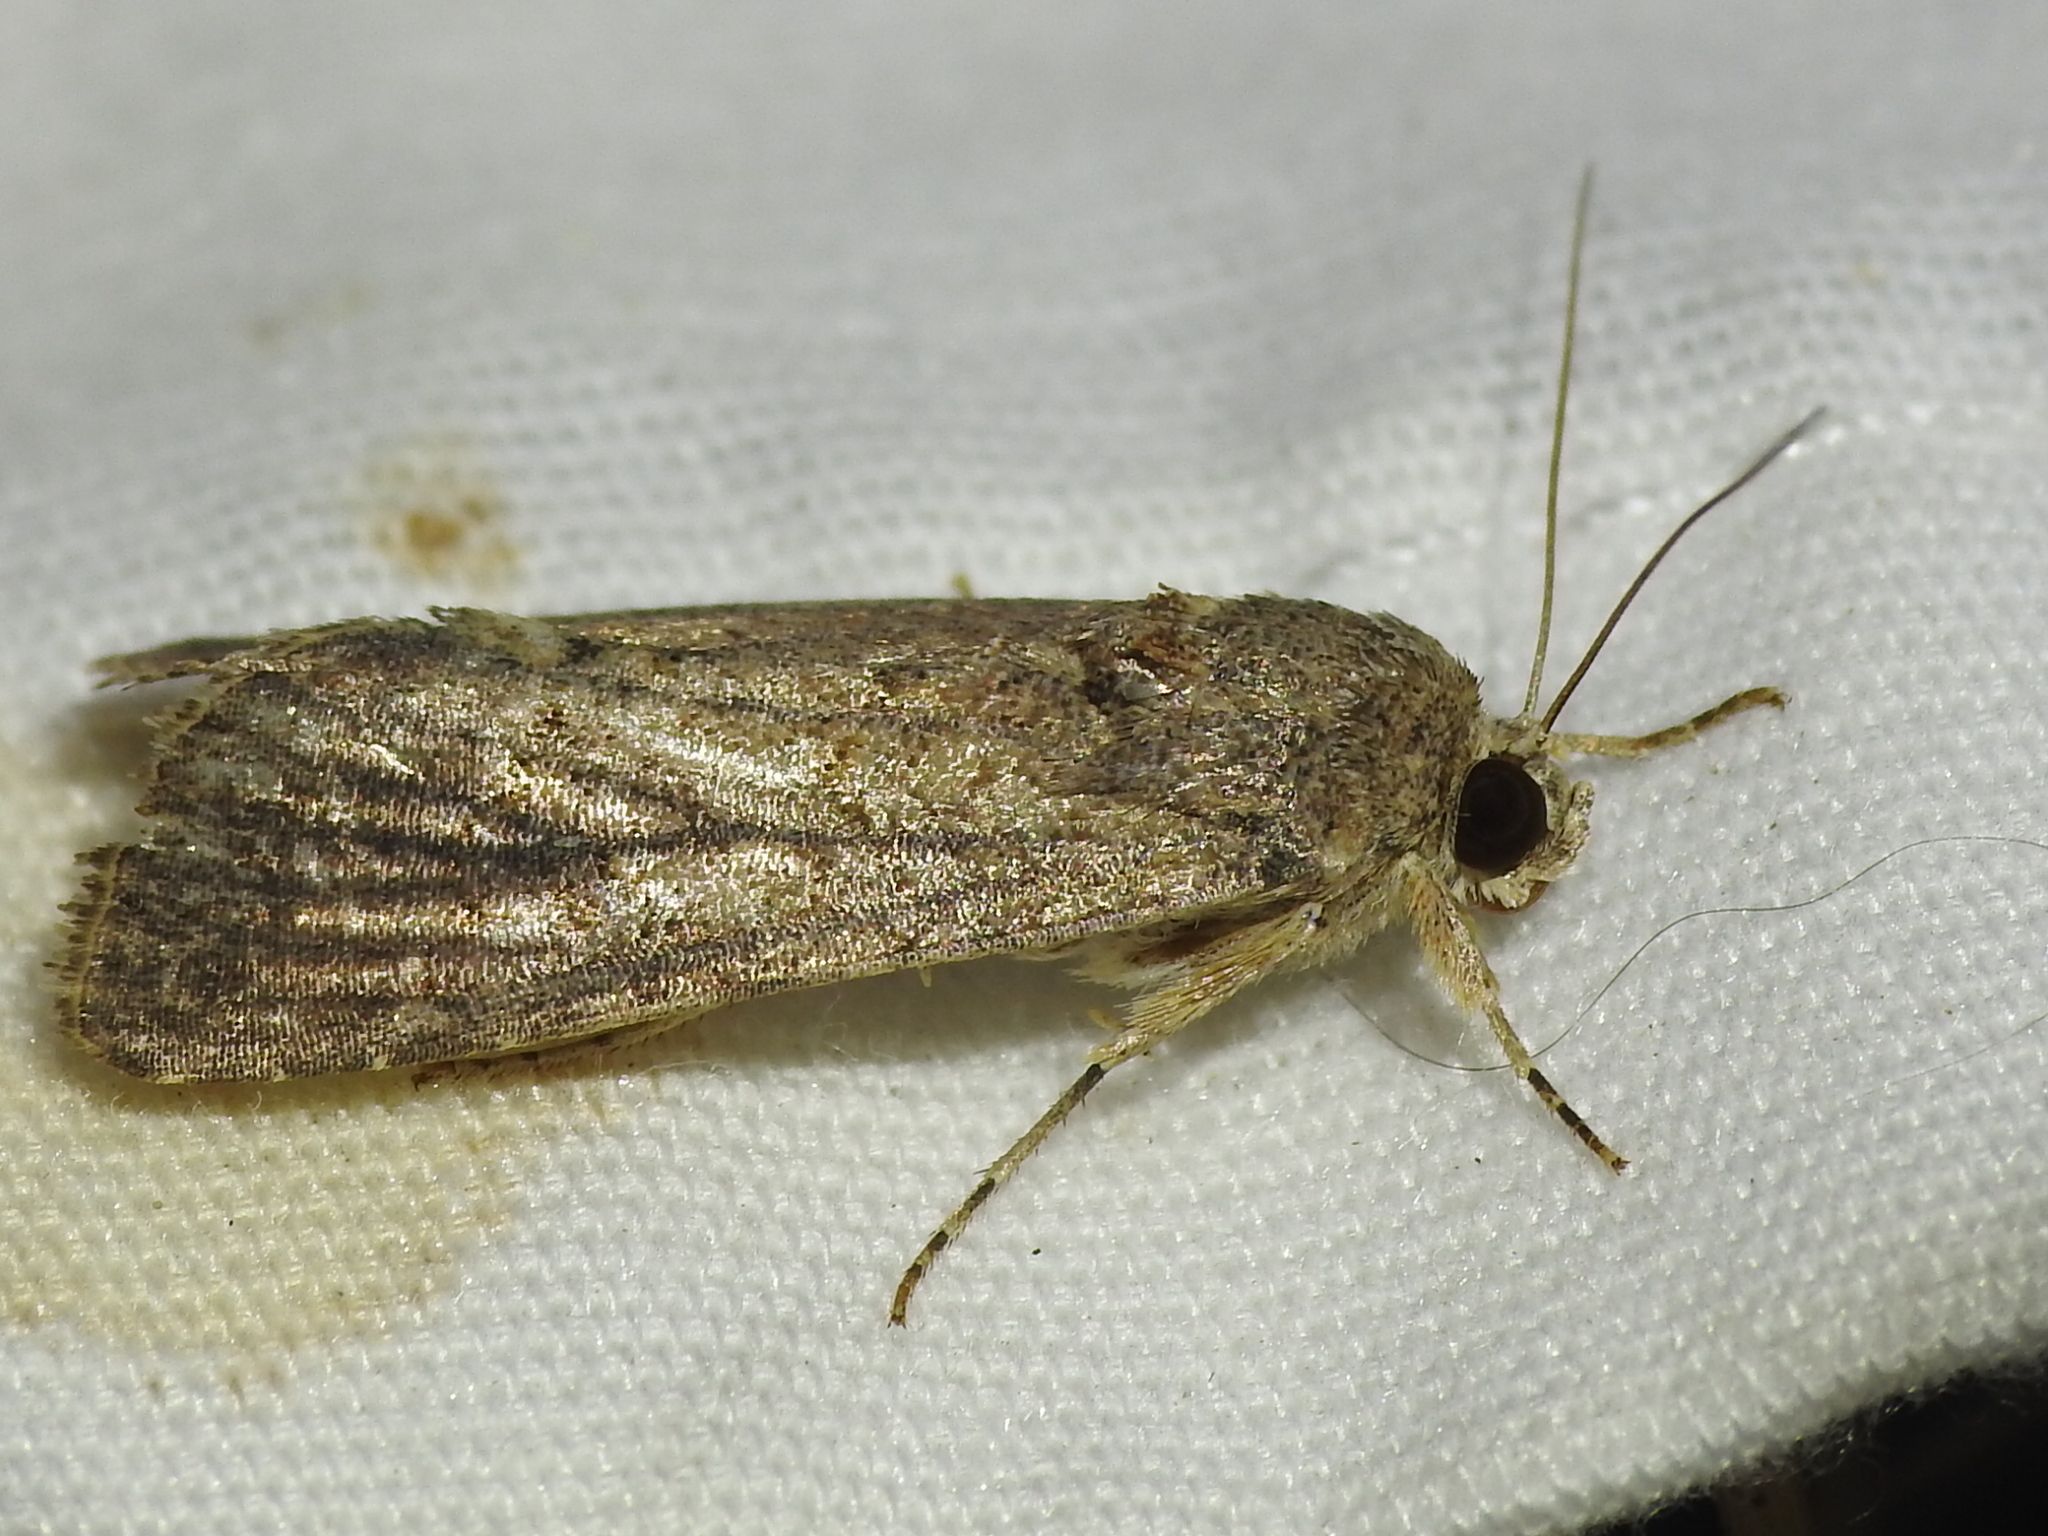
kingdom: Animalia
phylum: Arthropoda
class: Insecta
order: Lepidoptera
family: Noctuidae
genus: Spodoptera
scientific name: Spodoptera frugiperda
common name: Fall armyworm
